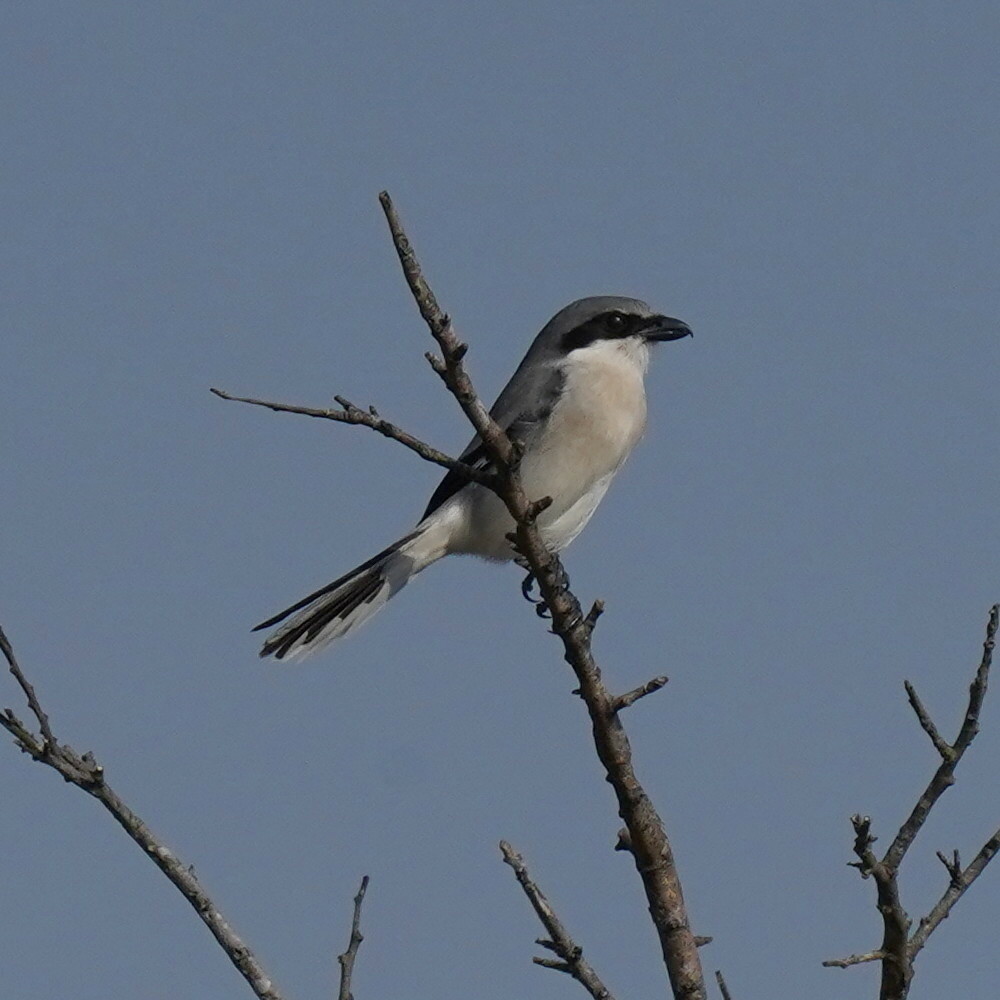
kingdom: Animalia
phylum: Chordata
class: Aves
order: Passeriformes
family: Laniidae
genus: Lanius
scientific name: Lanius ludovicianus
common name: Loggerhead shrike
